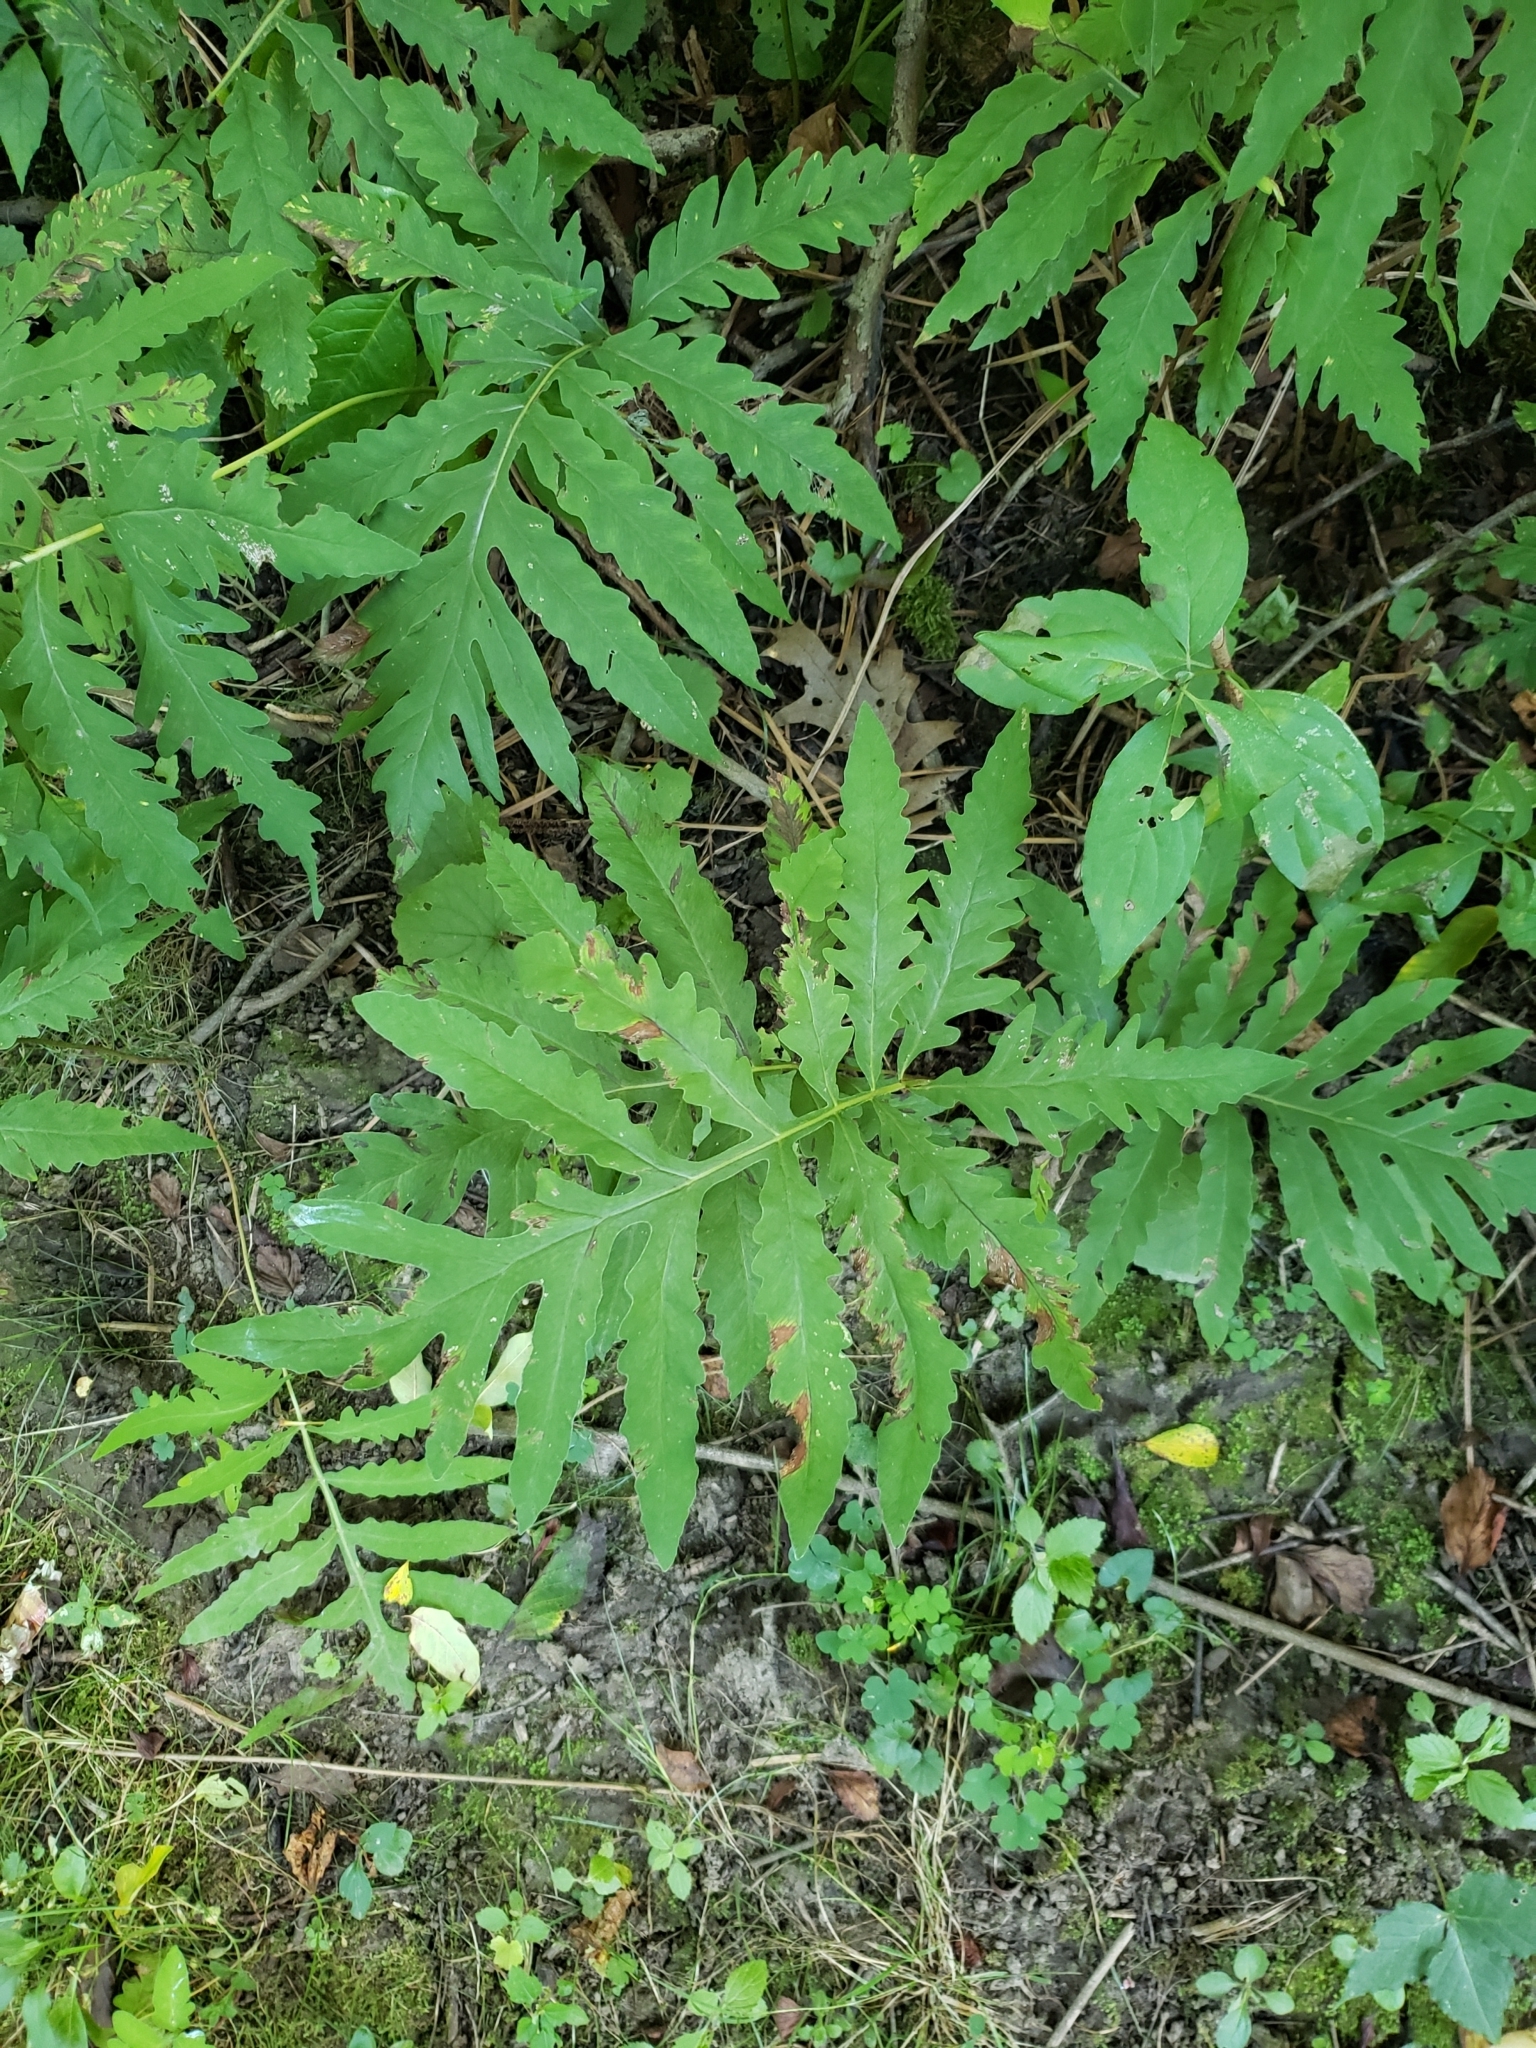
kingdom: Plantae
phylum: Tracheophyta
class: Polypodiopsida
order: Polypodiales
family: Onocleaceae
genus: Onoclea
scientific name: Onoclea sensibilis
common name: Sensitive fern
